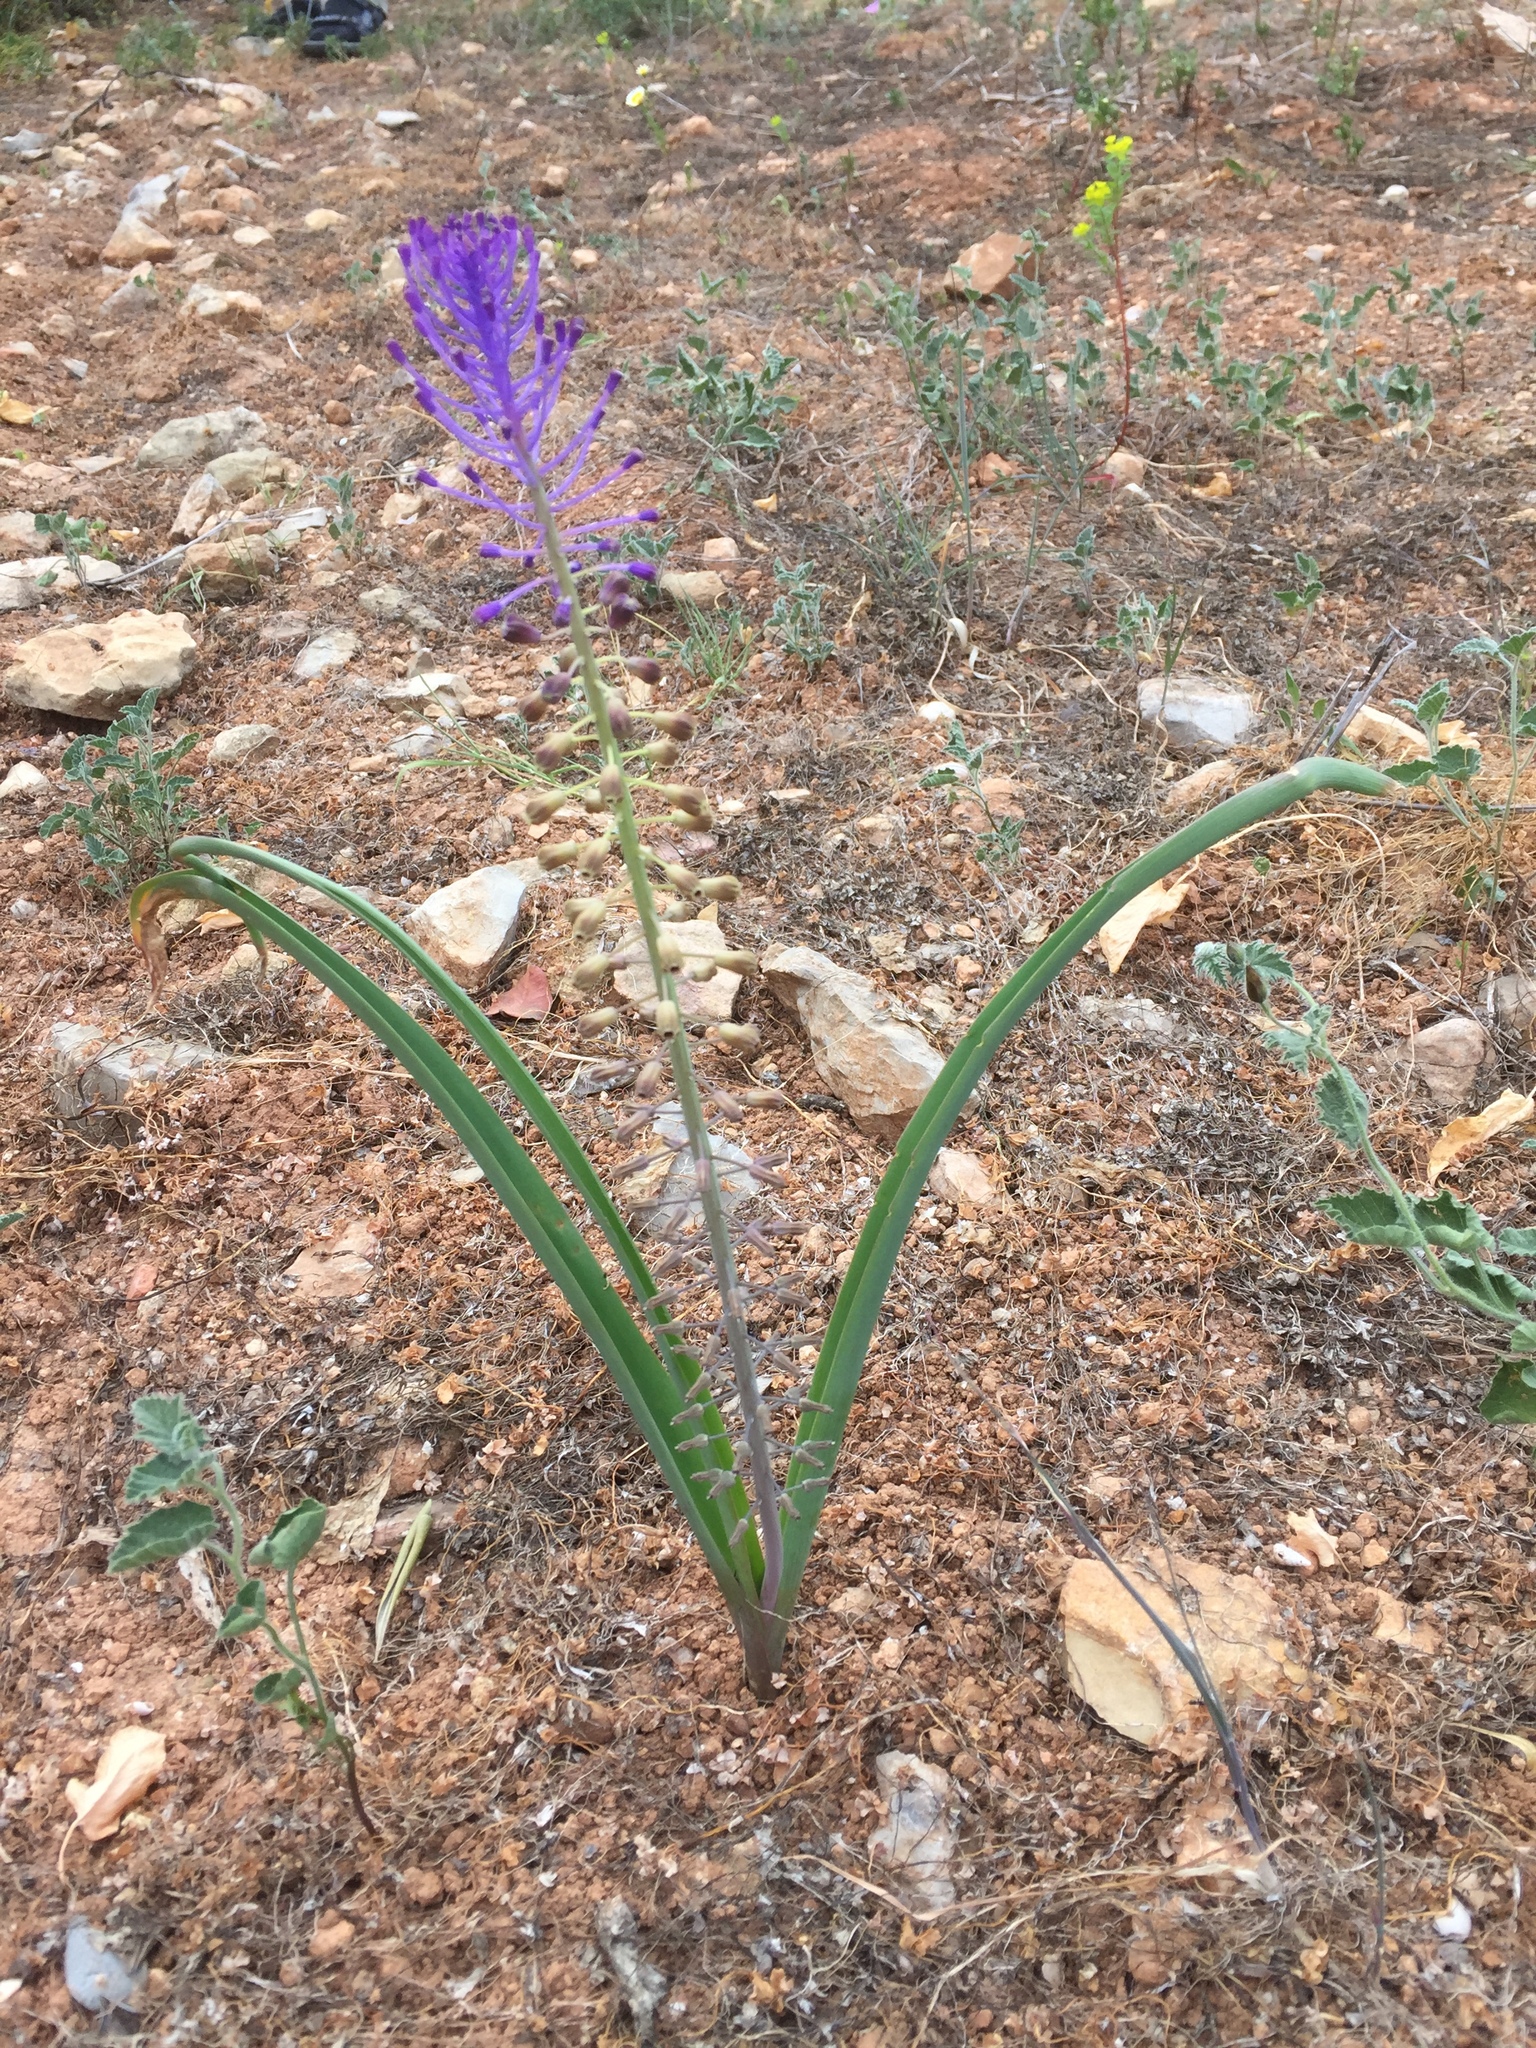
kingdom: Plantae
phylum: Tracheophyta
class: Liliopsida
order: Asparagales
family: Asparagaceae
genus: Muscari
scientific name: Muscari comosum
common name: Tassel hyacinth
